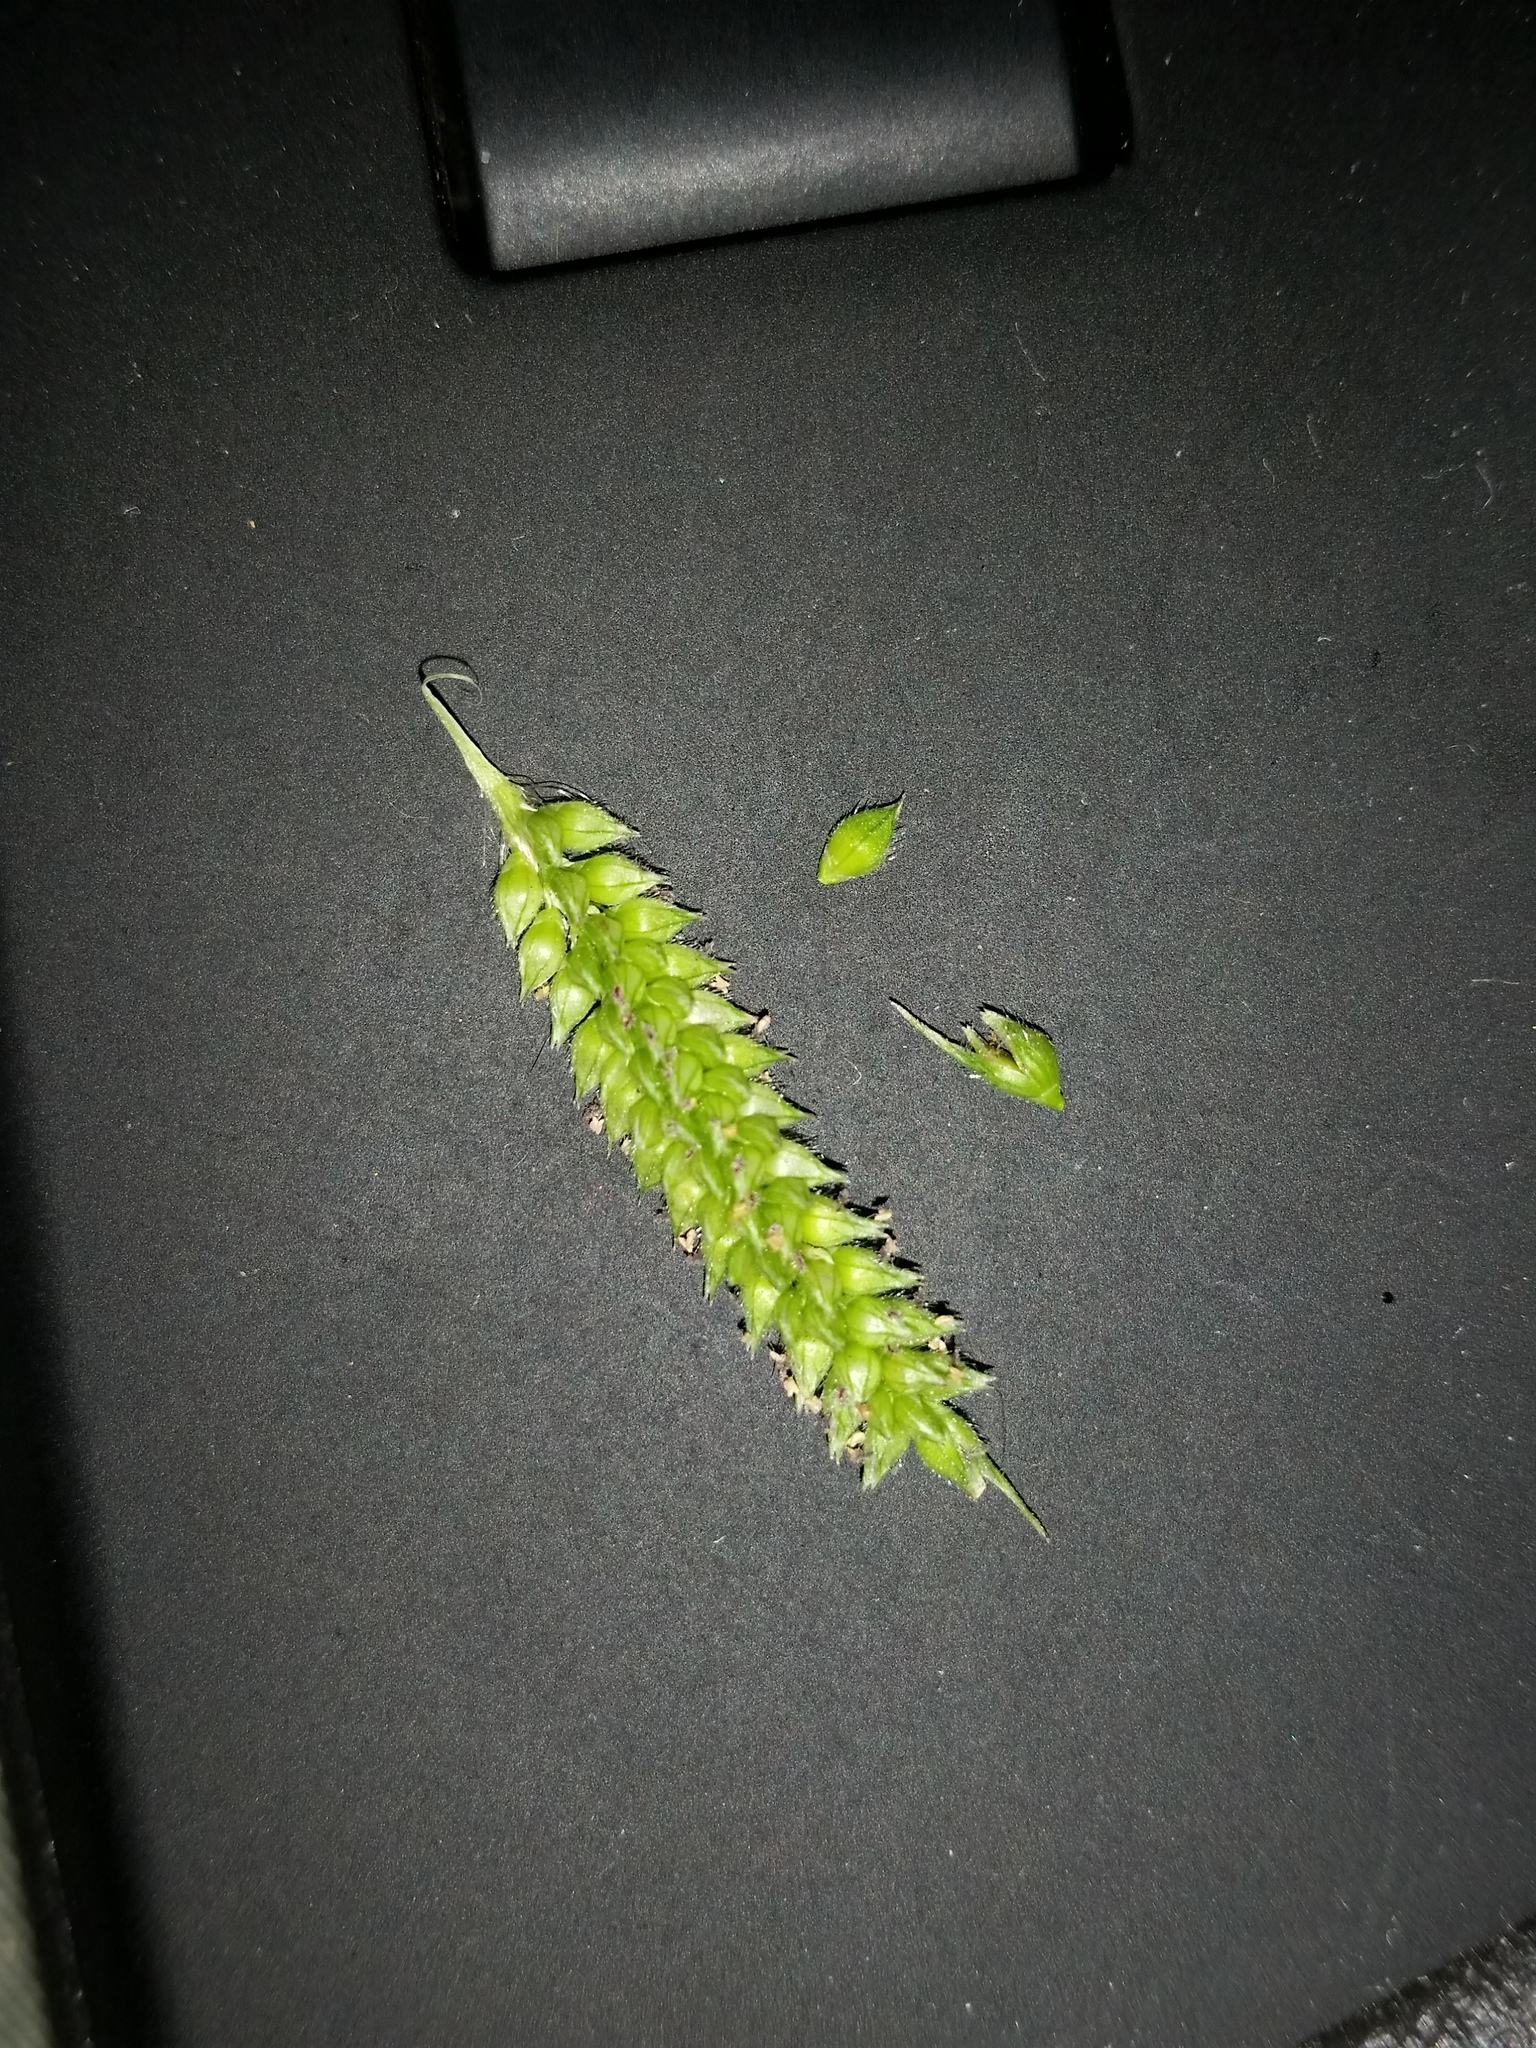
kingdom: Plantae
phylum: Tracheophyta
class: Liliopsida
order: Poales
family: Poaceae
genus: Echinochloa
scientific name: Echinochloa crus-galli
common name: Cockspur
